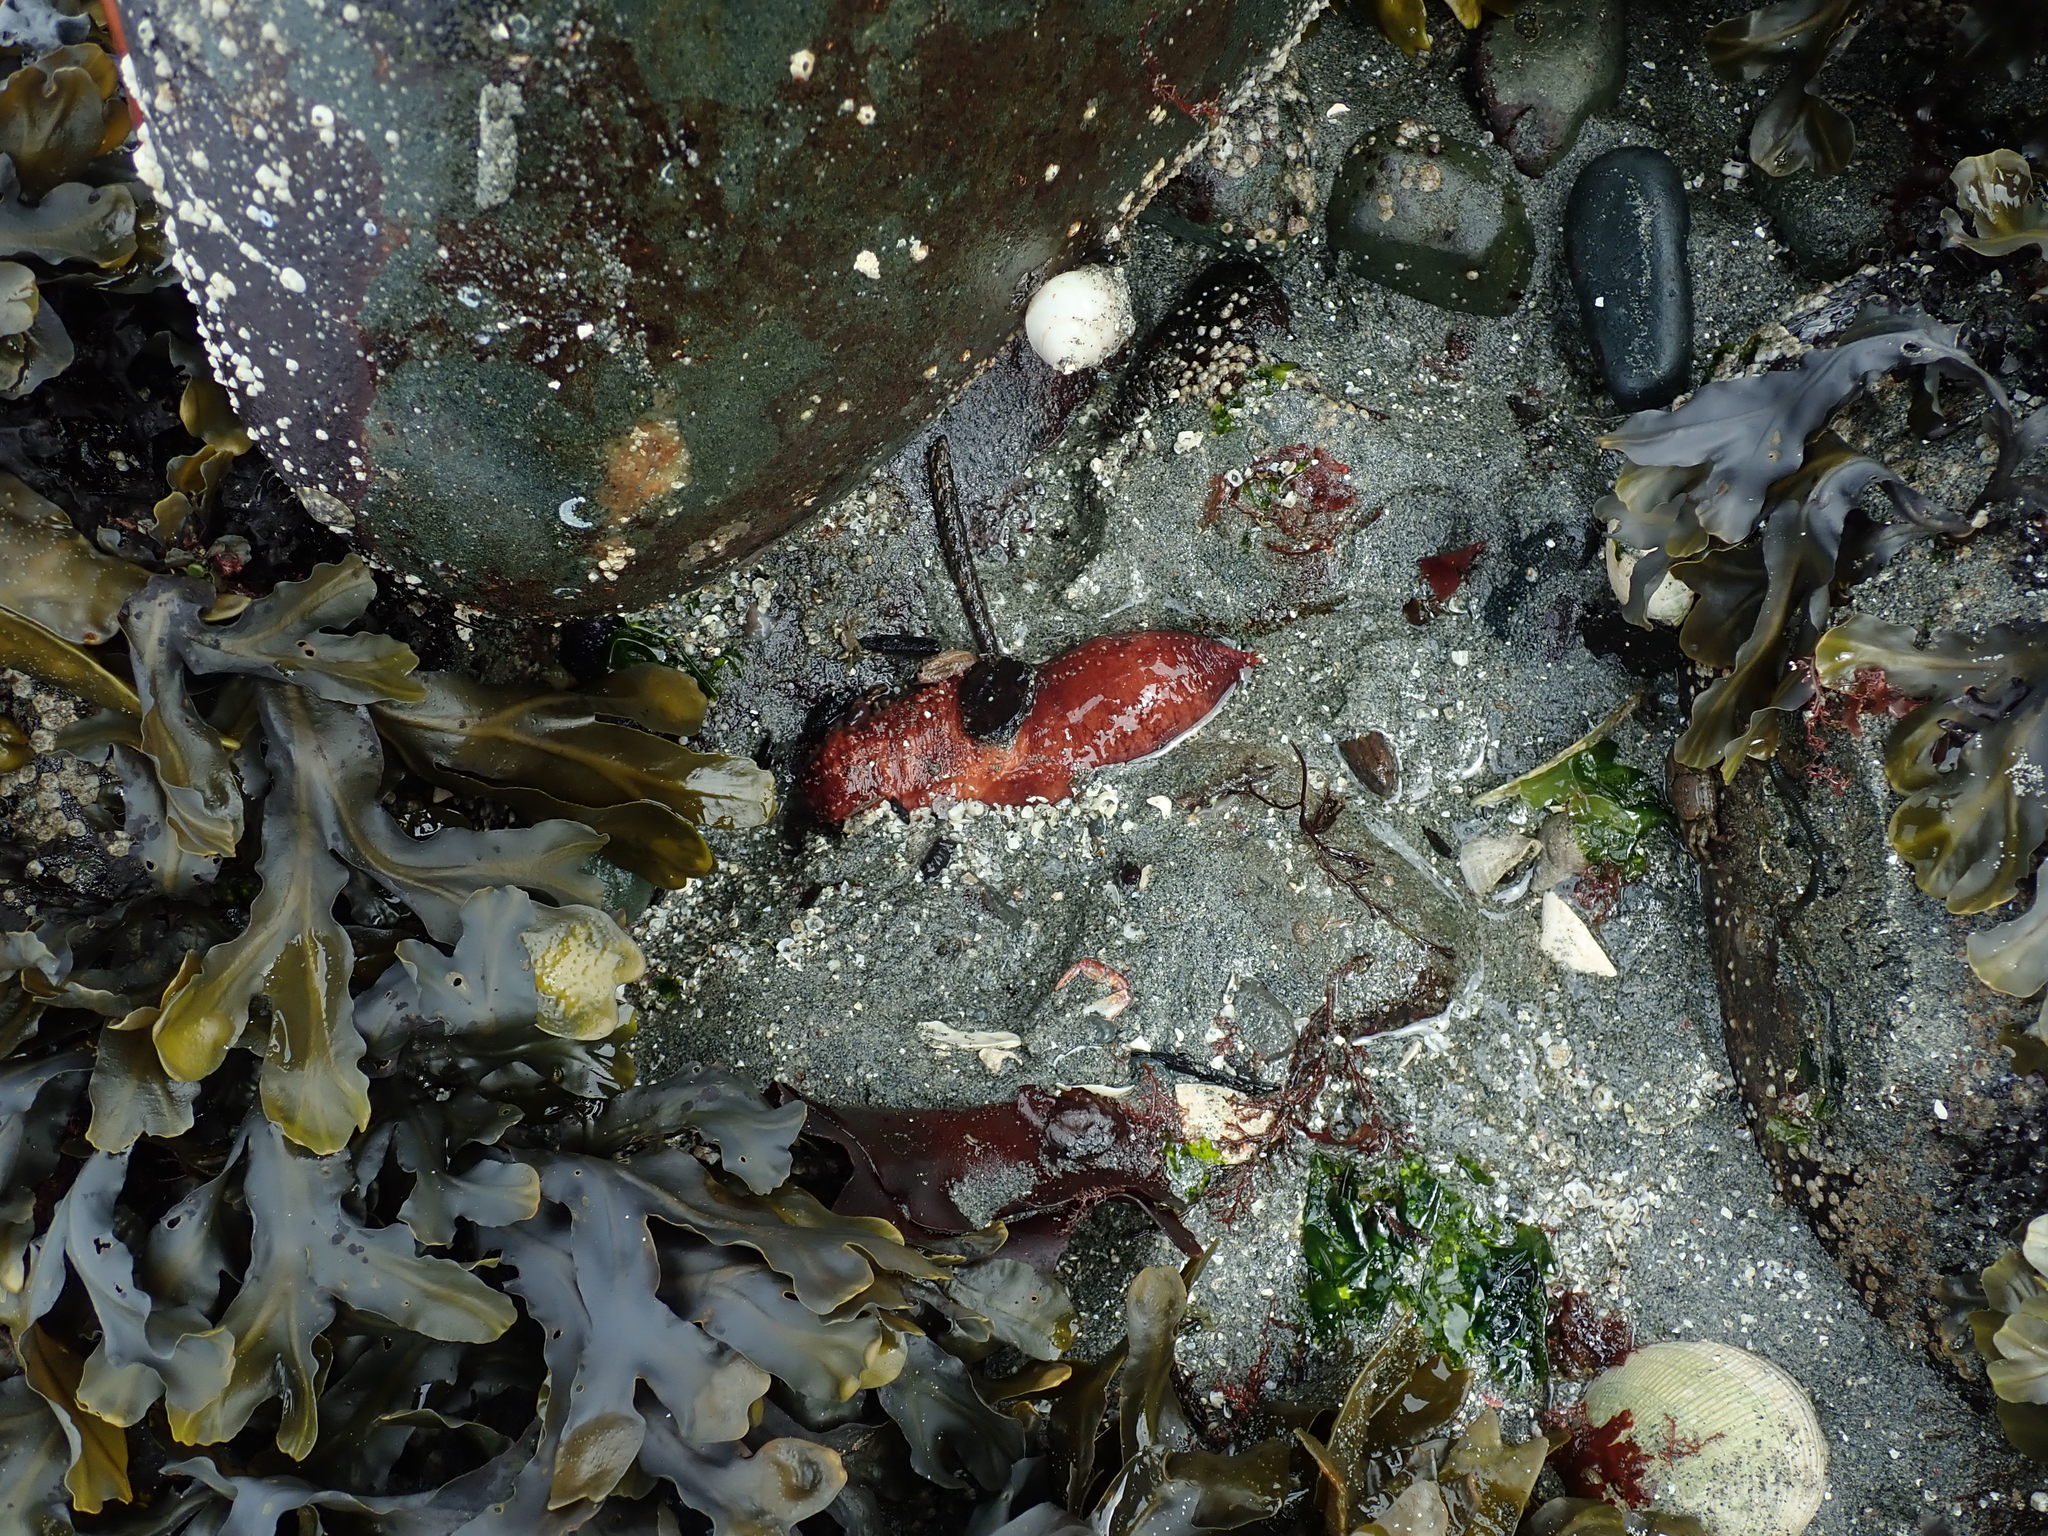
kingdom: Animalia
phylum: Echinodermata
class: Holothuroidea
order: Dendrochirotida
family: Cucumariidae
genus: Cucumaria
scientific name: Cucumaria miniata
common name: Orange sea cucumber
